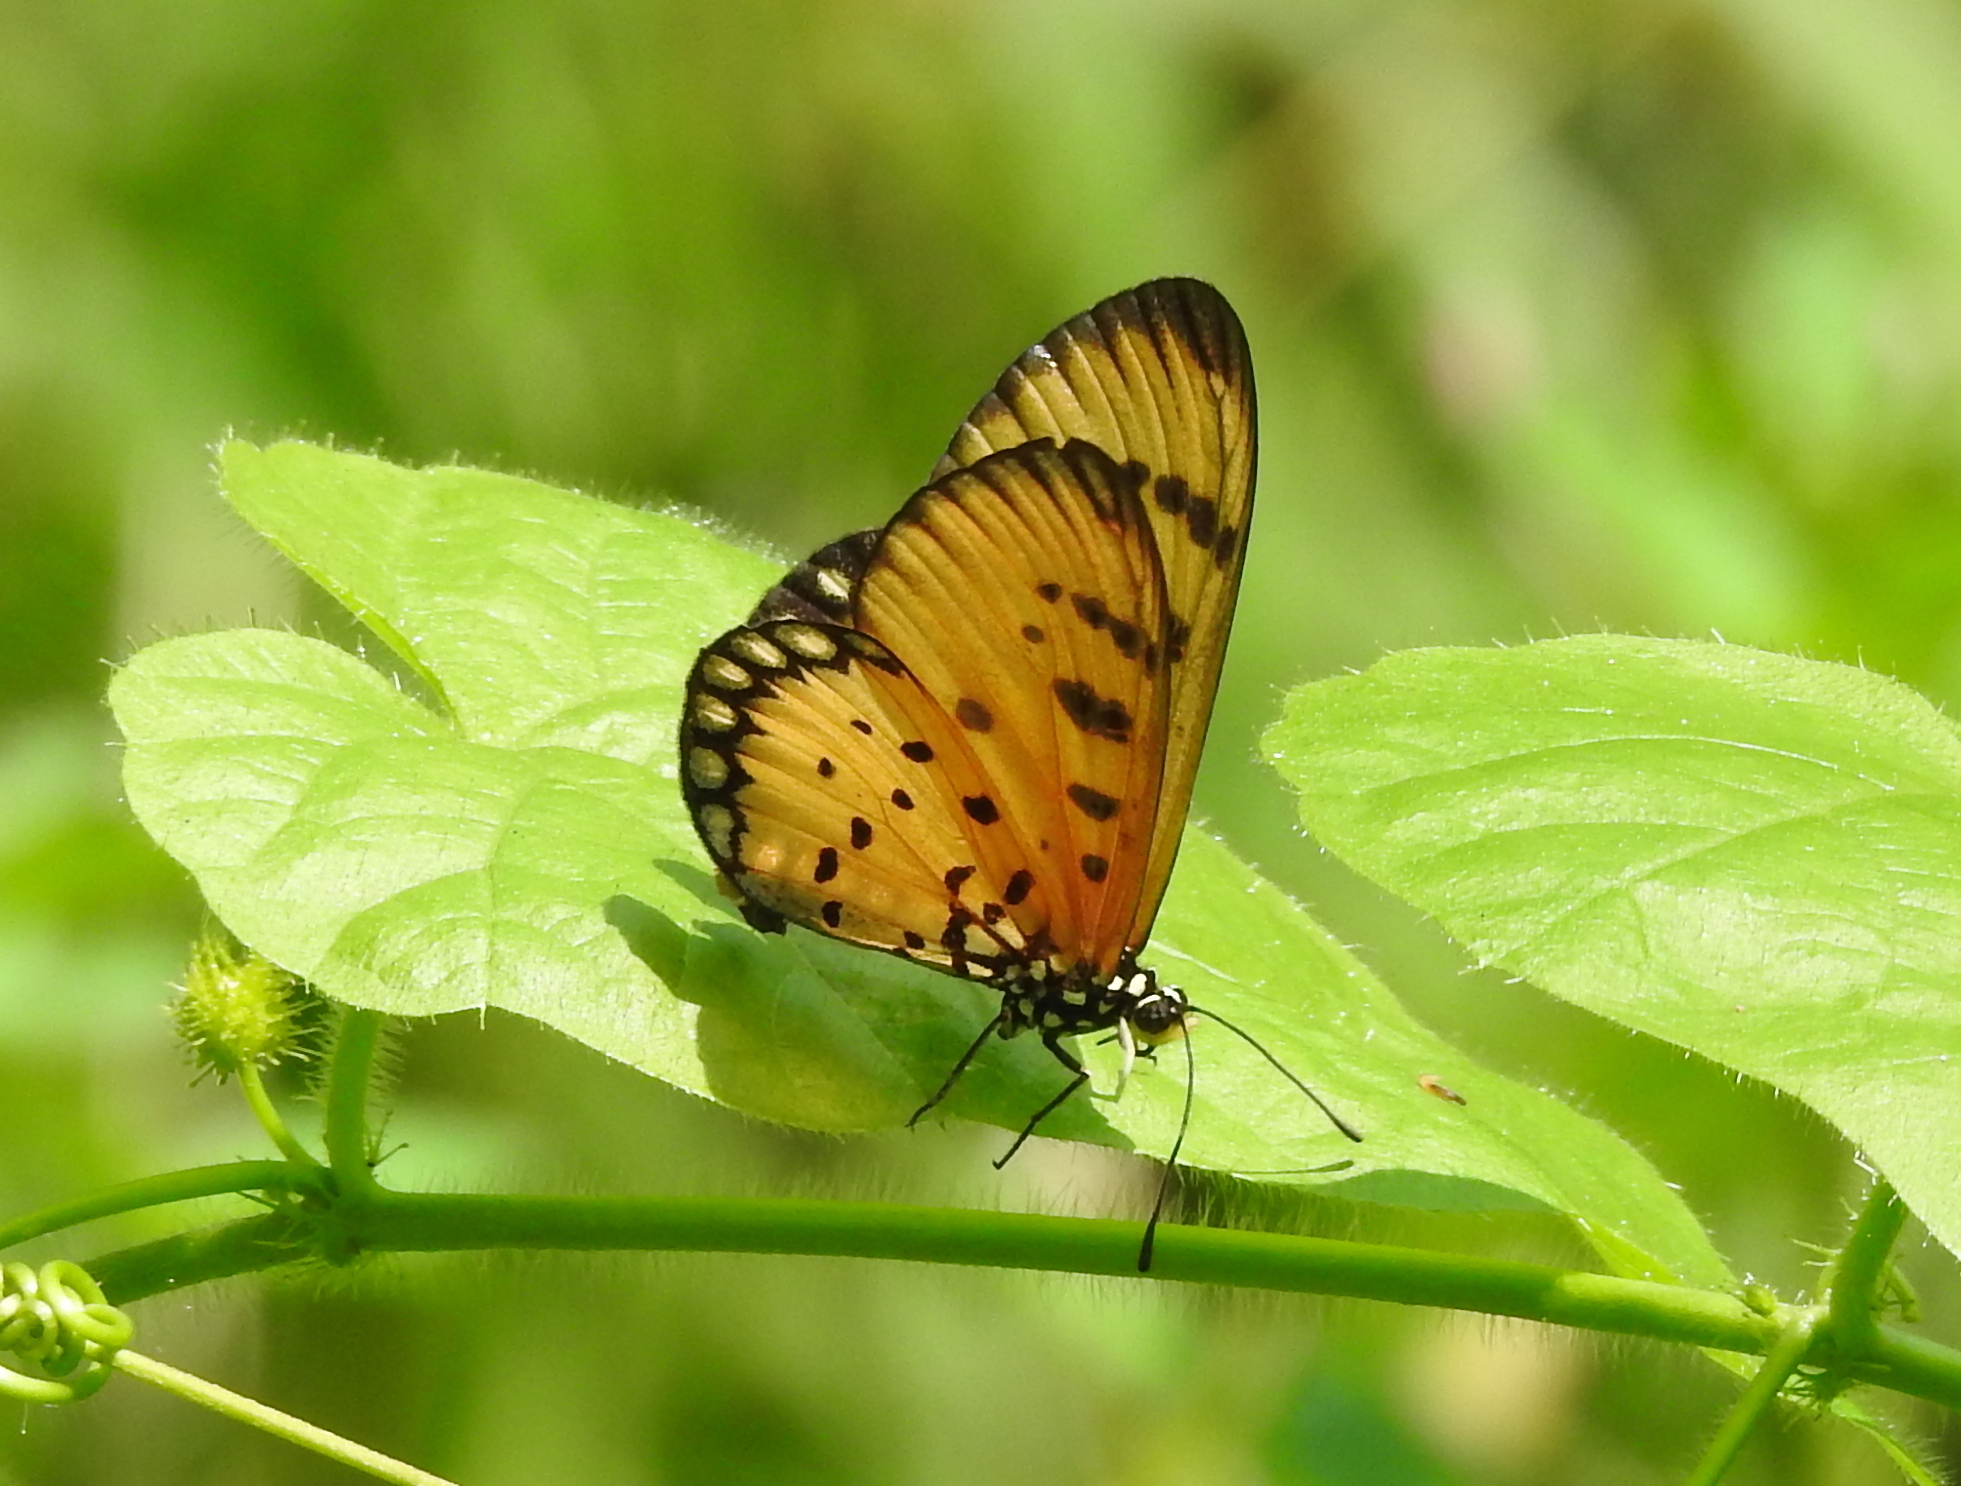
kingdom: Animalia
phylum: Arthropoda
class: Insecta
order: Lepidoptera
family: Nymphalidae
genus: Acraea
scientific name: Acraea terpsicore
